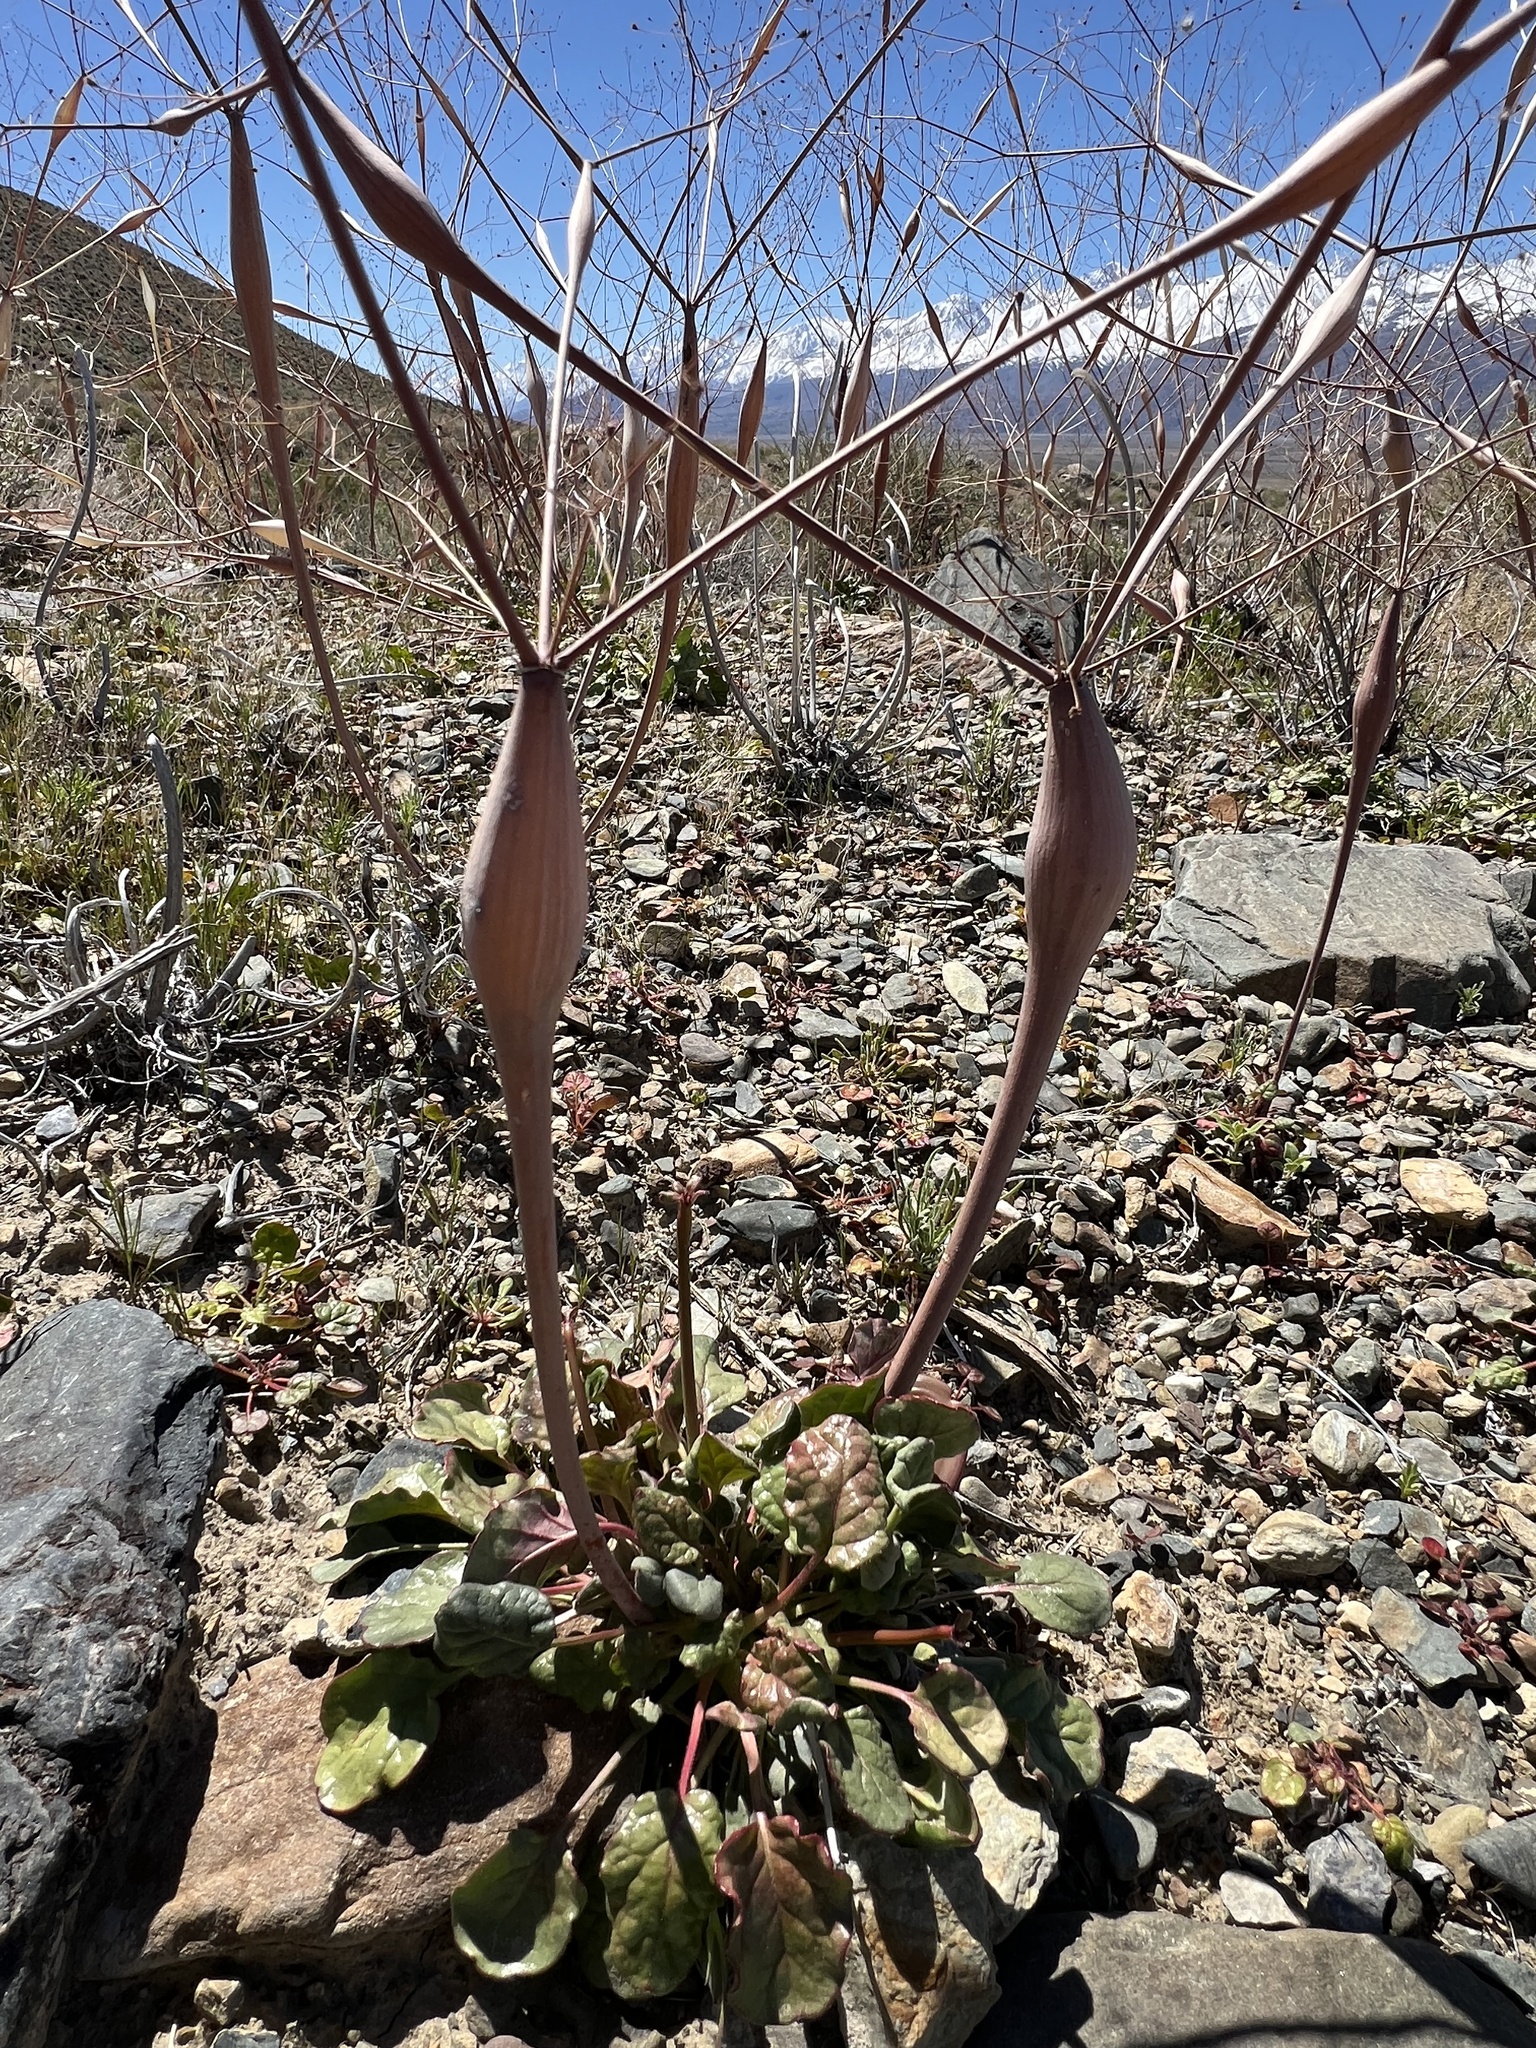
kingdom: Plantae
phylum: Tracheophyta
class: Magnoliopsida
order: Caryophyllales
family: Polygonaceae
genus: Eriogonum
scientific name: Eriogonum inflatum
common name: Desert trumpet
